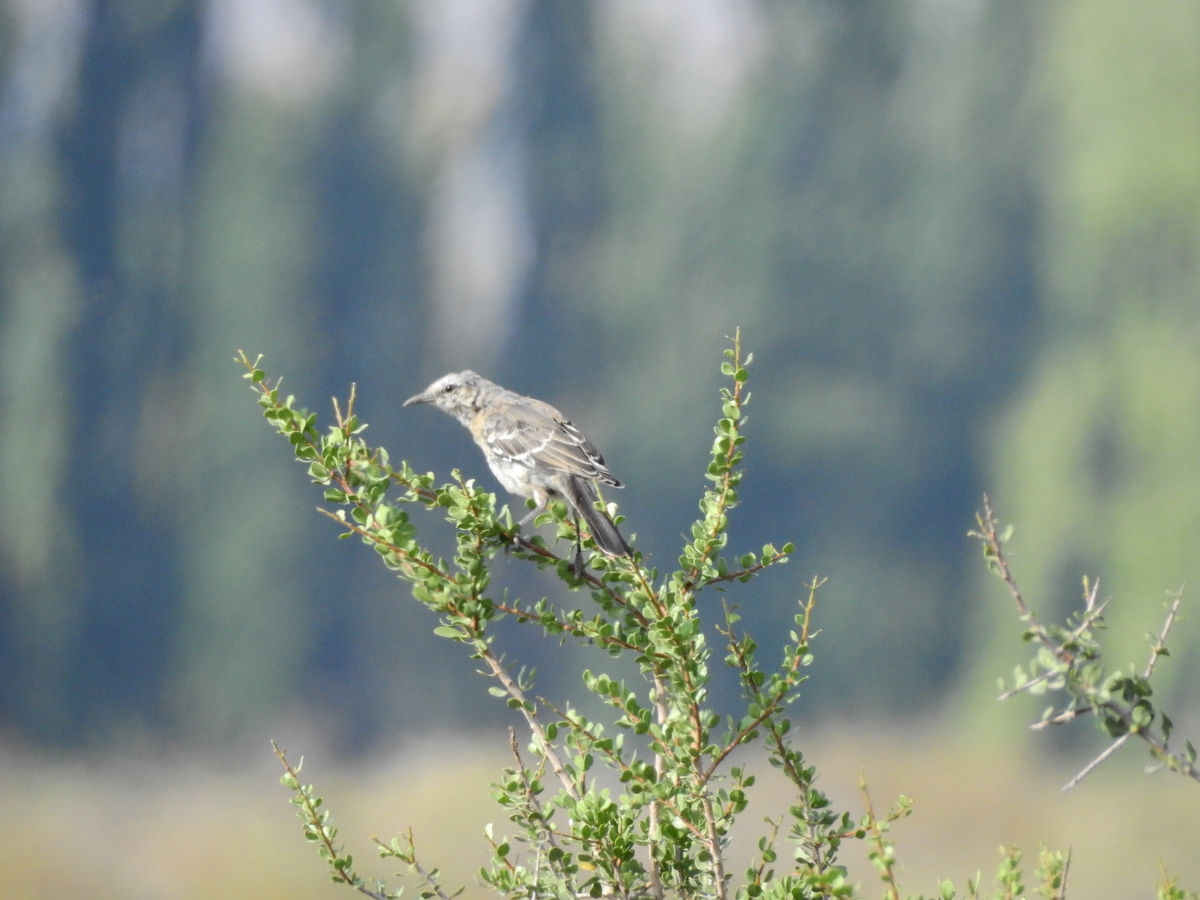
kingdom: Animalia
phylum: Chordata
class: Aves
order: Passeriformes
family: Mimidae
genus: Mimus
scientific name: Mimus patagonicus
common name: Patagonian mockingbird
